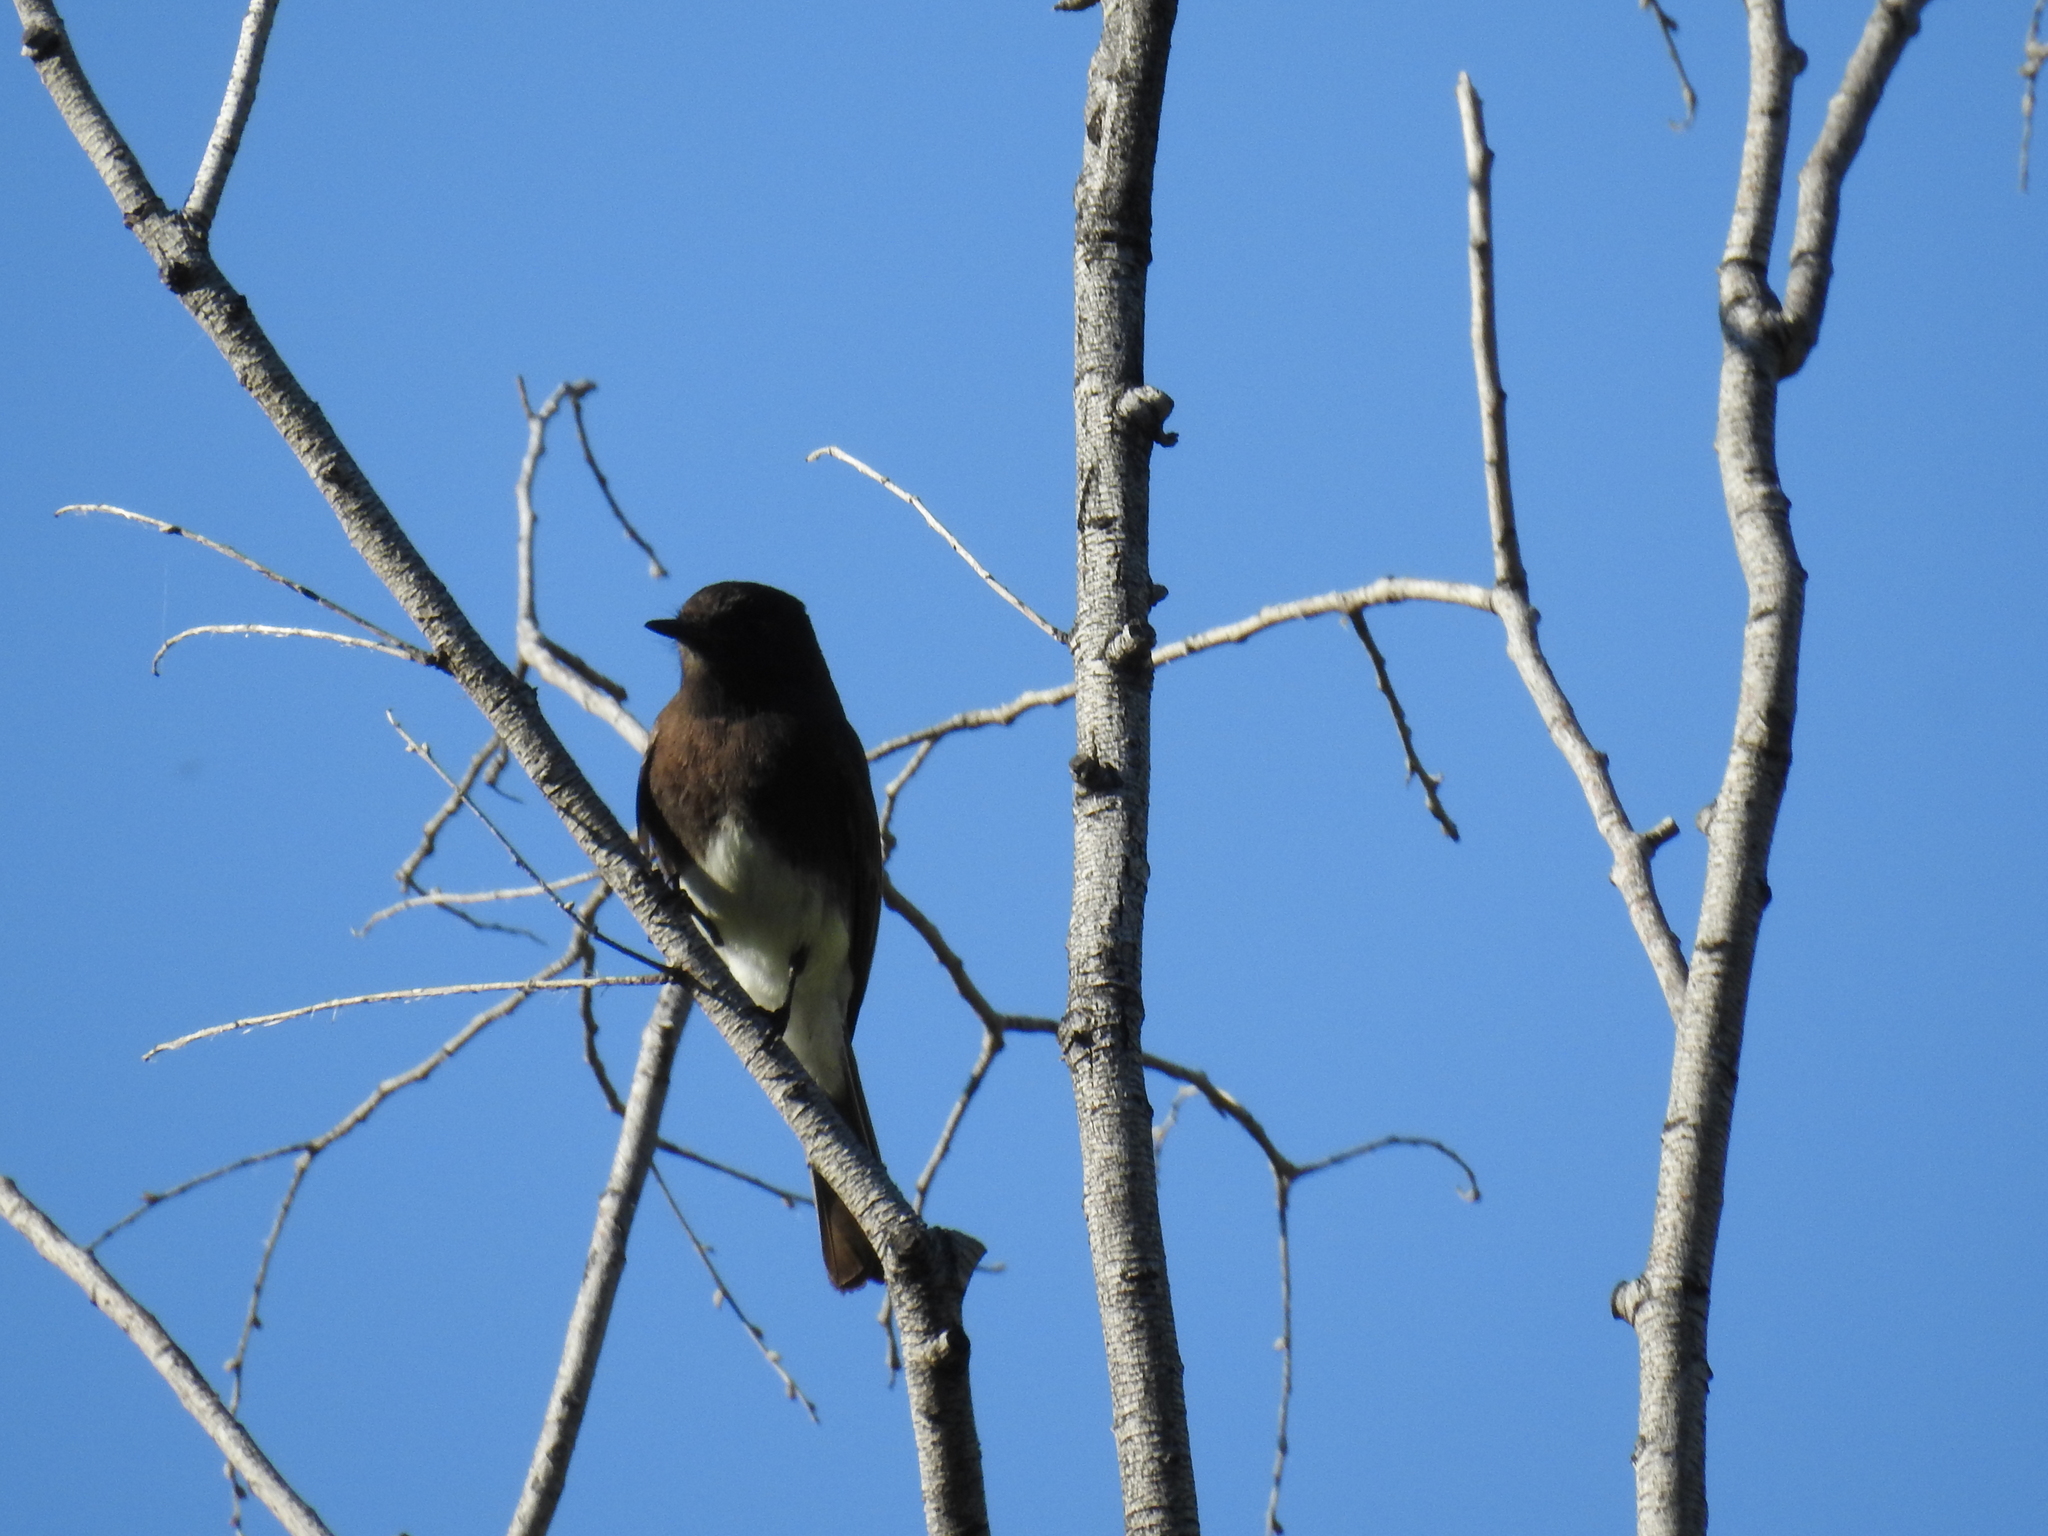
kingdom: Animalia
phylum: Chordata
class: Aves
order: Passeriformes
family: Tyrannidae
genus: Sayornis
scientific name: Sayornis nigricans
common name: Black phoebe
